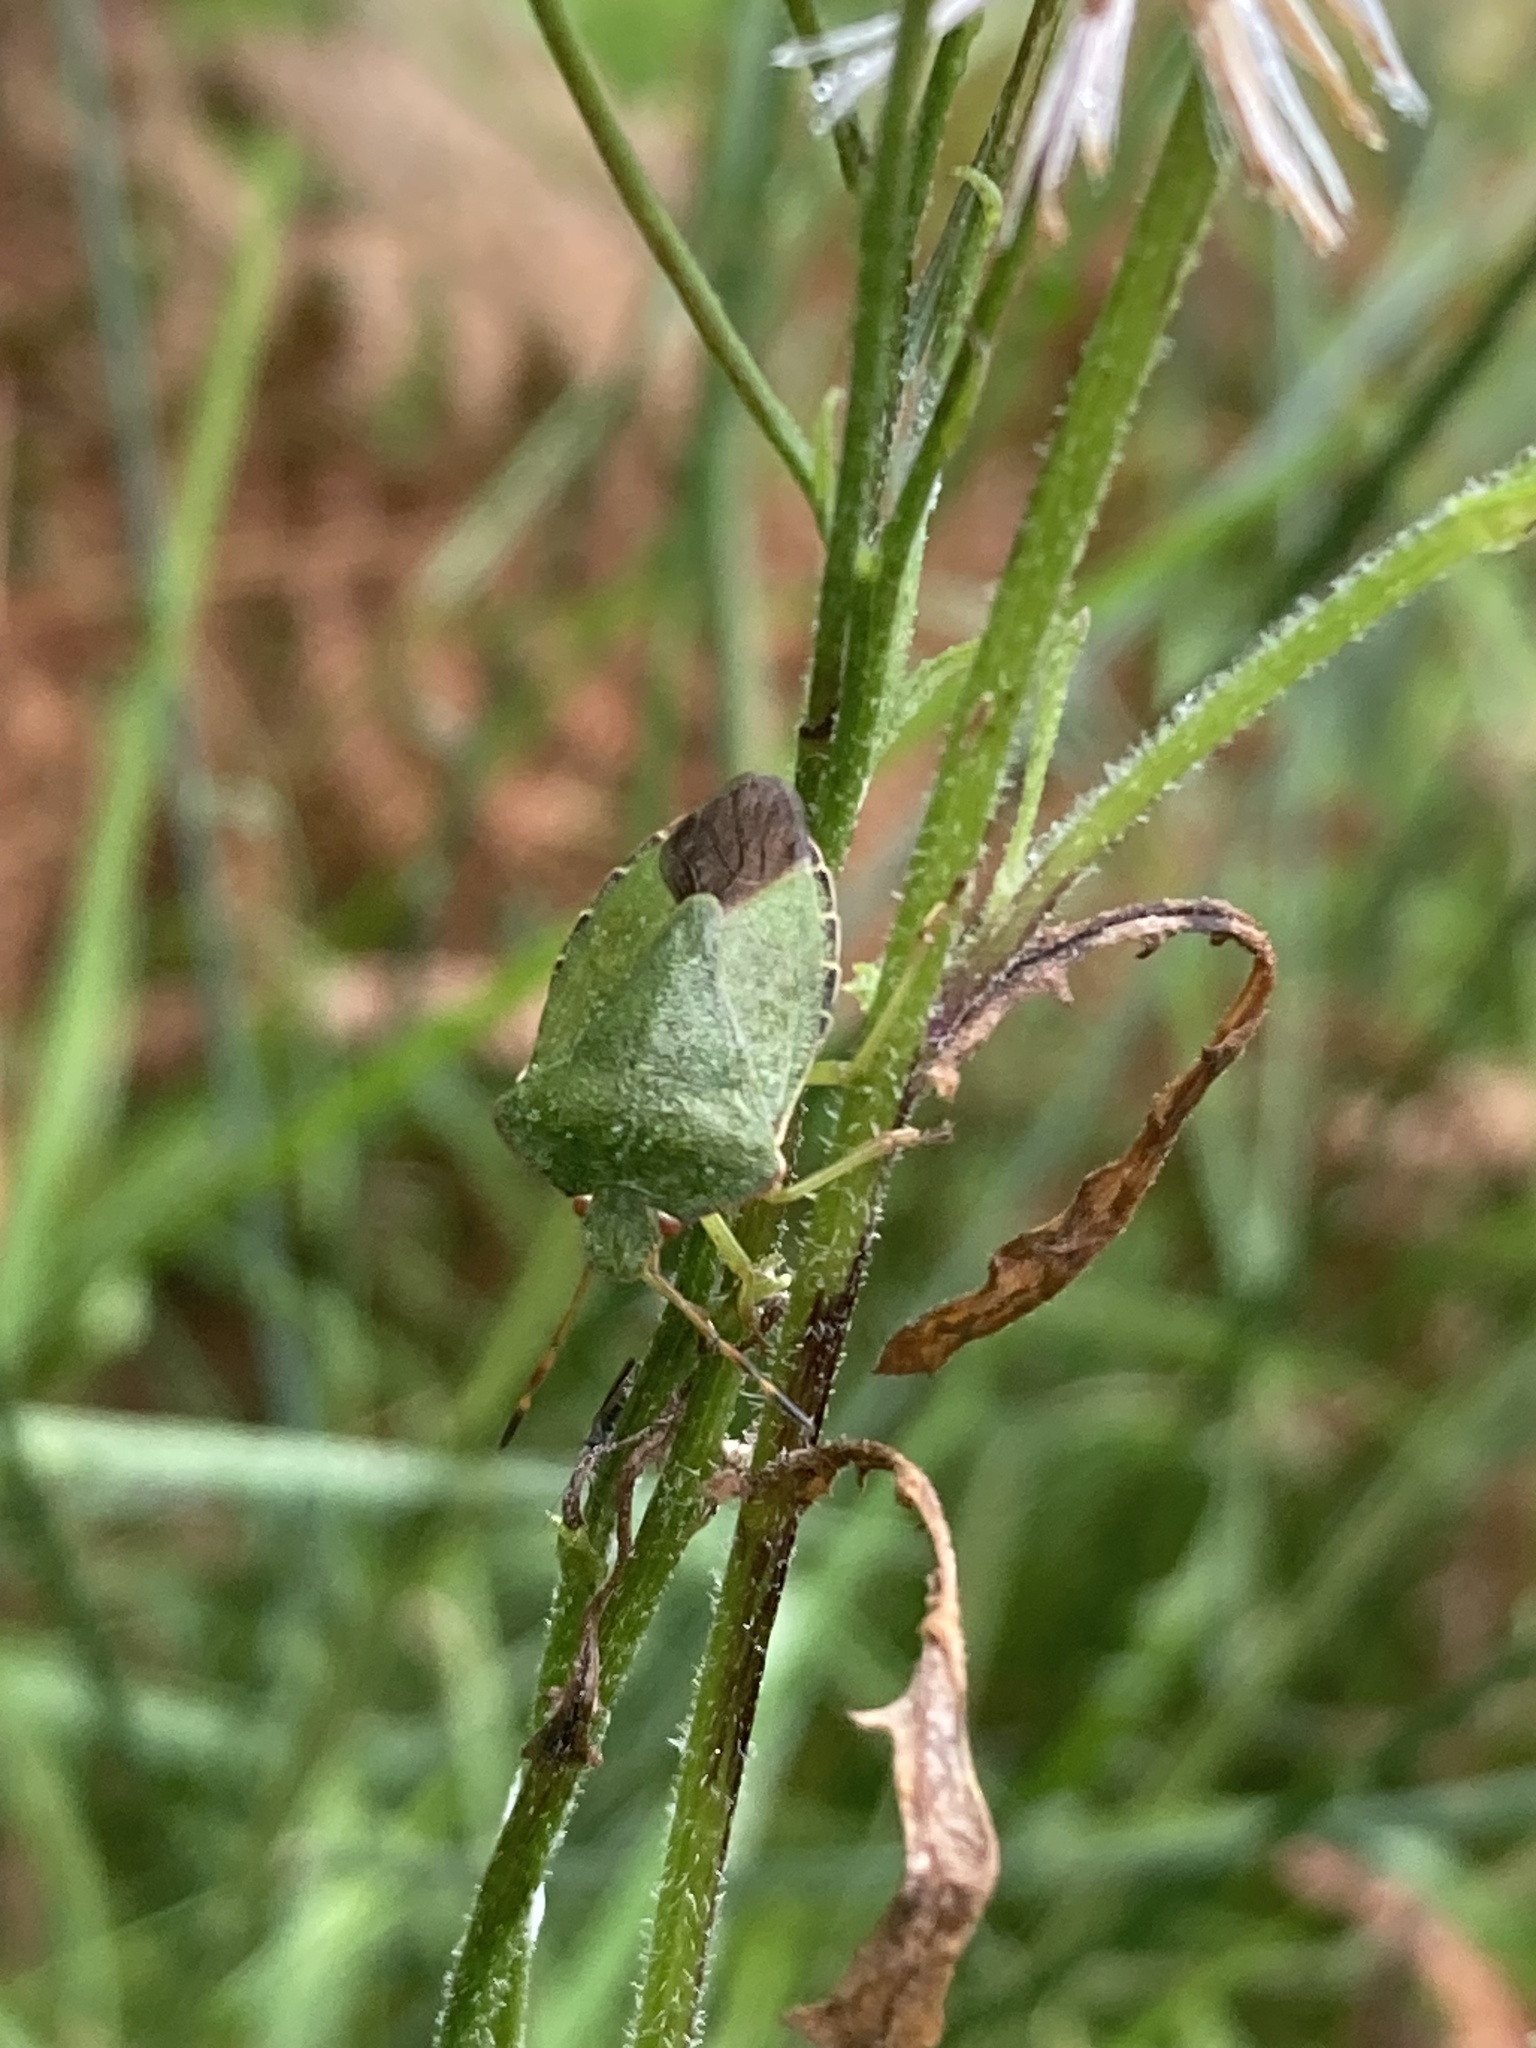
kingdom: Animalia
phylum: Arthropoda
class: Insecta
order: Hemiptera
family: Pentatomidae
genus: Palomena
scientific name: Palomena prasina
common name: Green shieldbug
